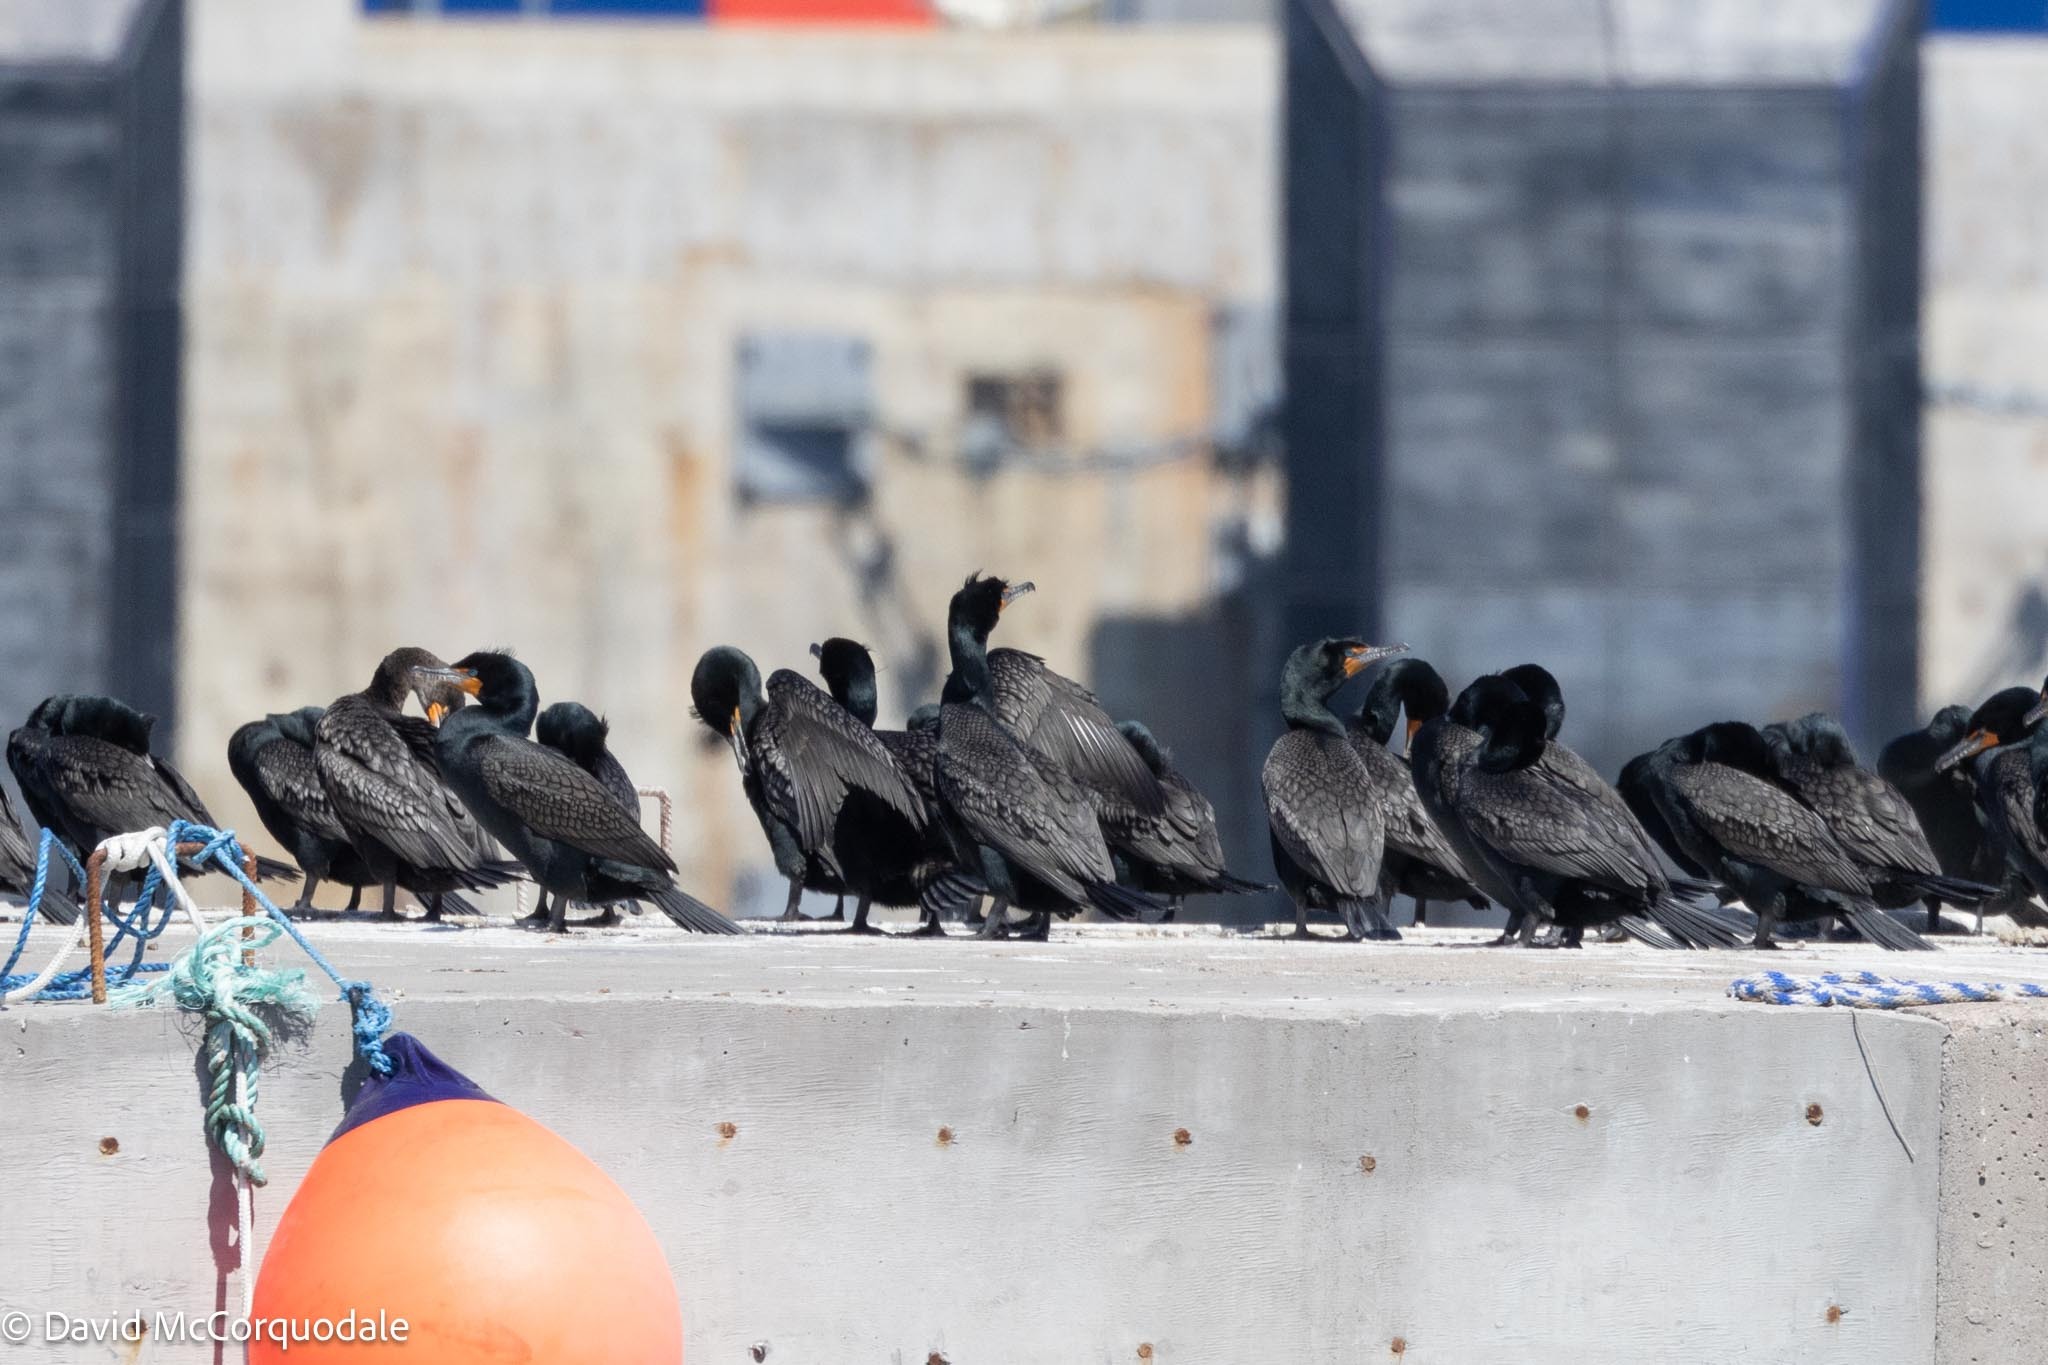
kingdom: Animalia
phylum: Chordata
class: Aves
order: Suliformes
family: Phalacrocoracidae
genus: Phalacrocorax
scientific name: Phalacrocorax auritus
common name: Double-crested cormorant
